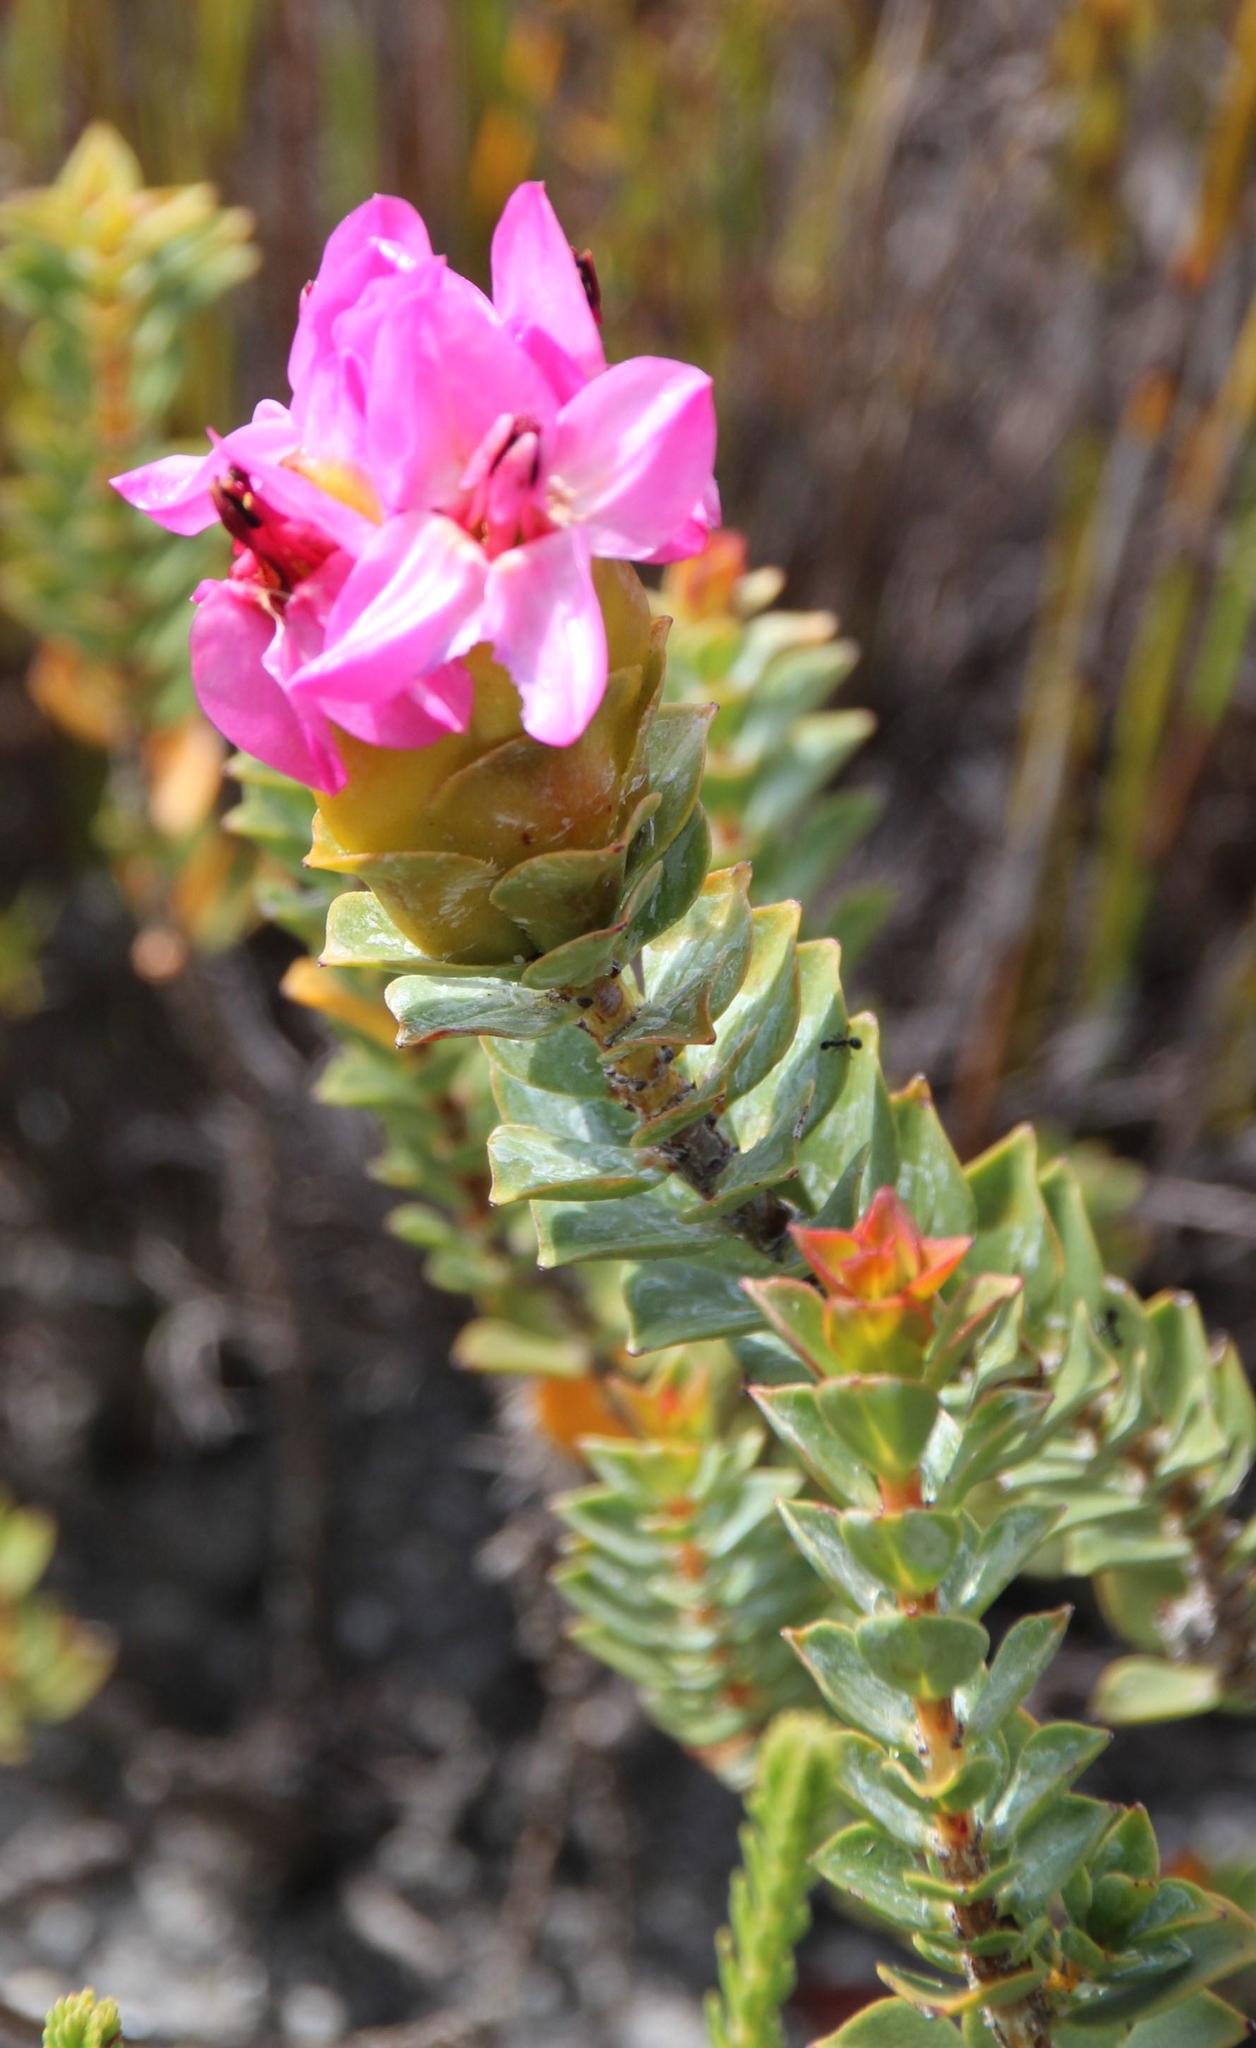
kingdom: Plantae
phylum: Tracheophyta
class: Magnoliopsida
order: Myrtales
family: Penaeaceae
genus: Saltera
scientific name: Saltera sarcocolla
